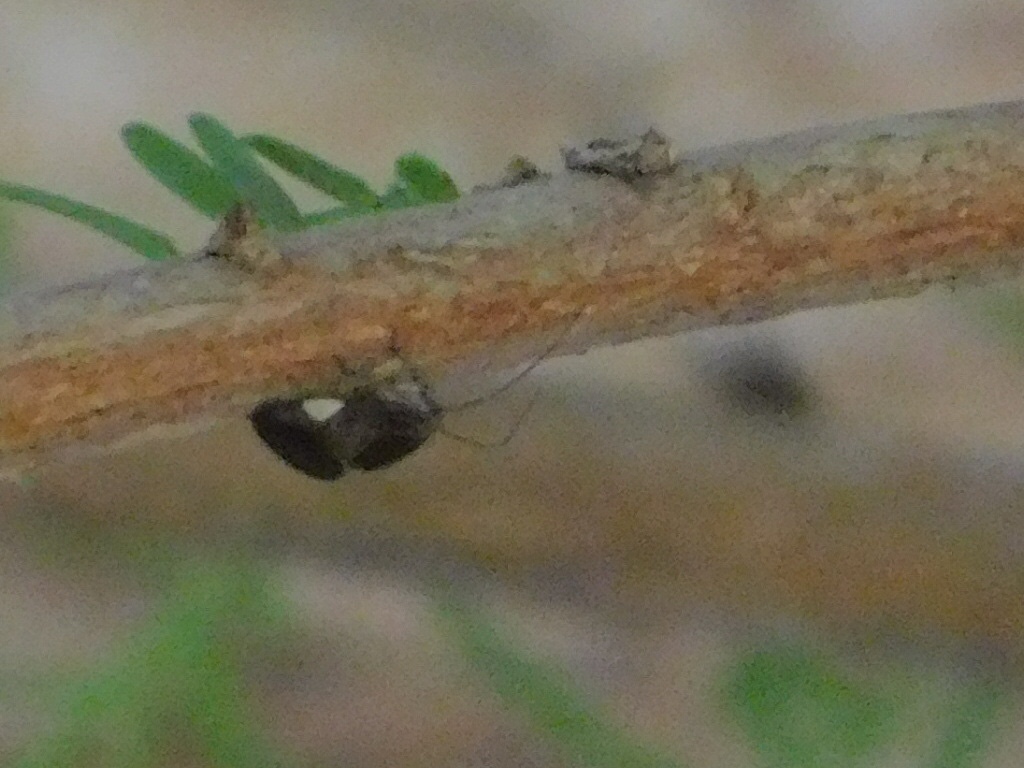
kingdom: Animalia
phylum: Arthropoda
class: Insecta
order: Psocodea
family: Psocidae
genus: Cerastipsocus
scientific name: Cerastipsocus venosus
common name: Tree cattle
